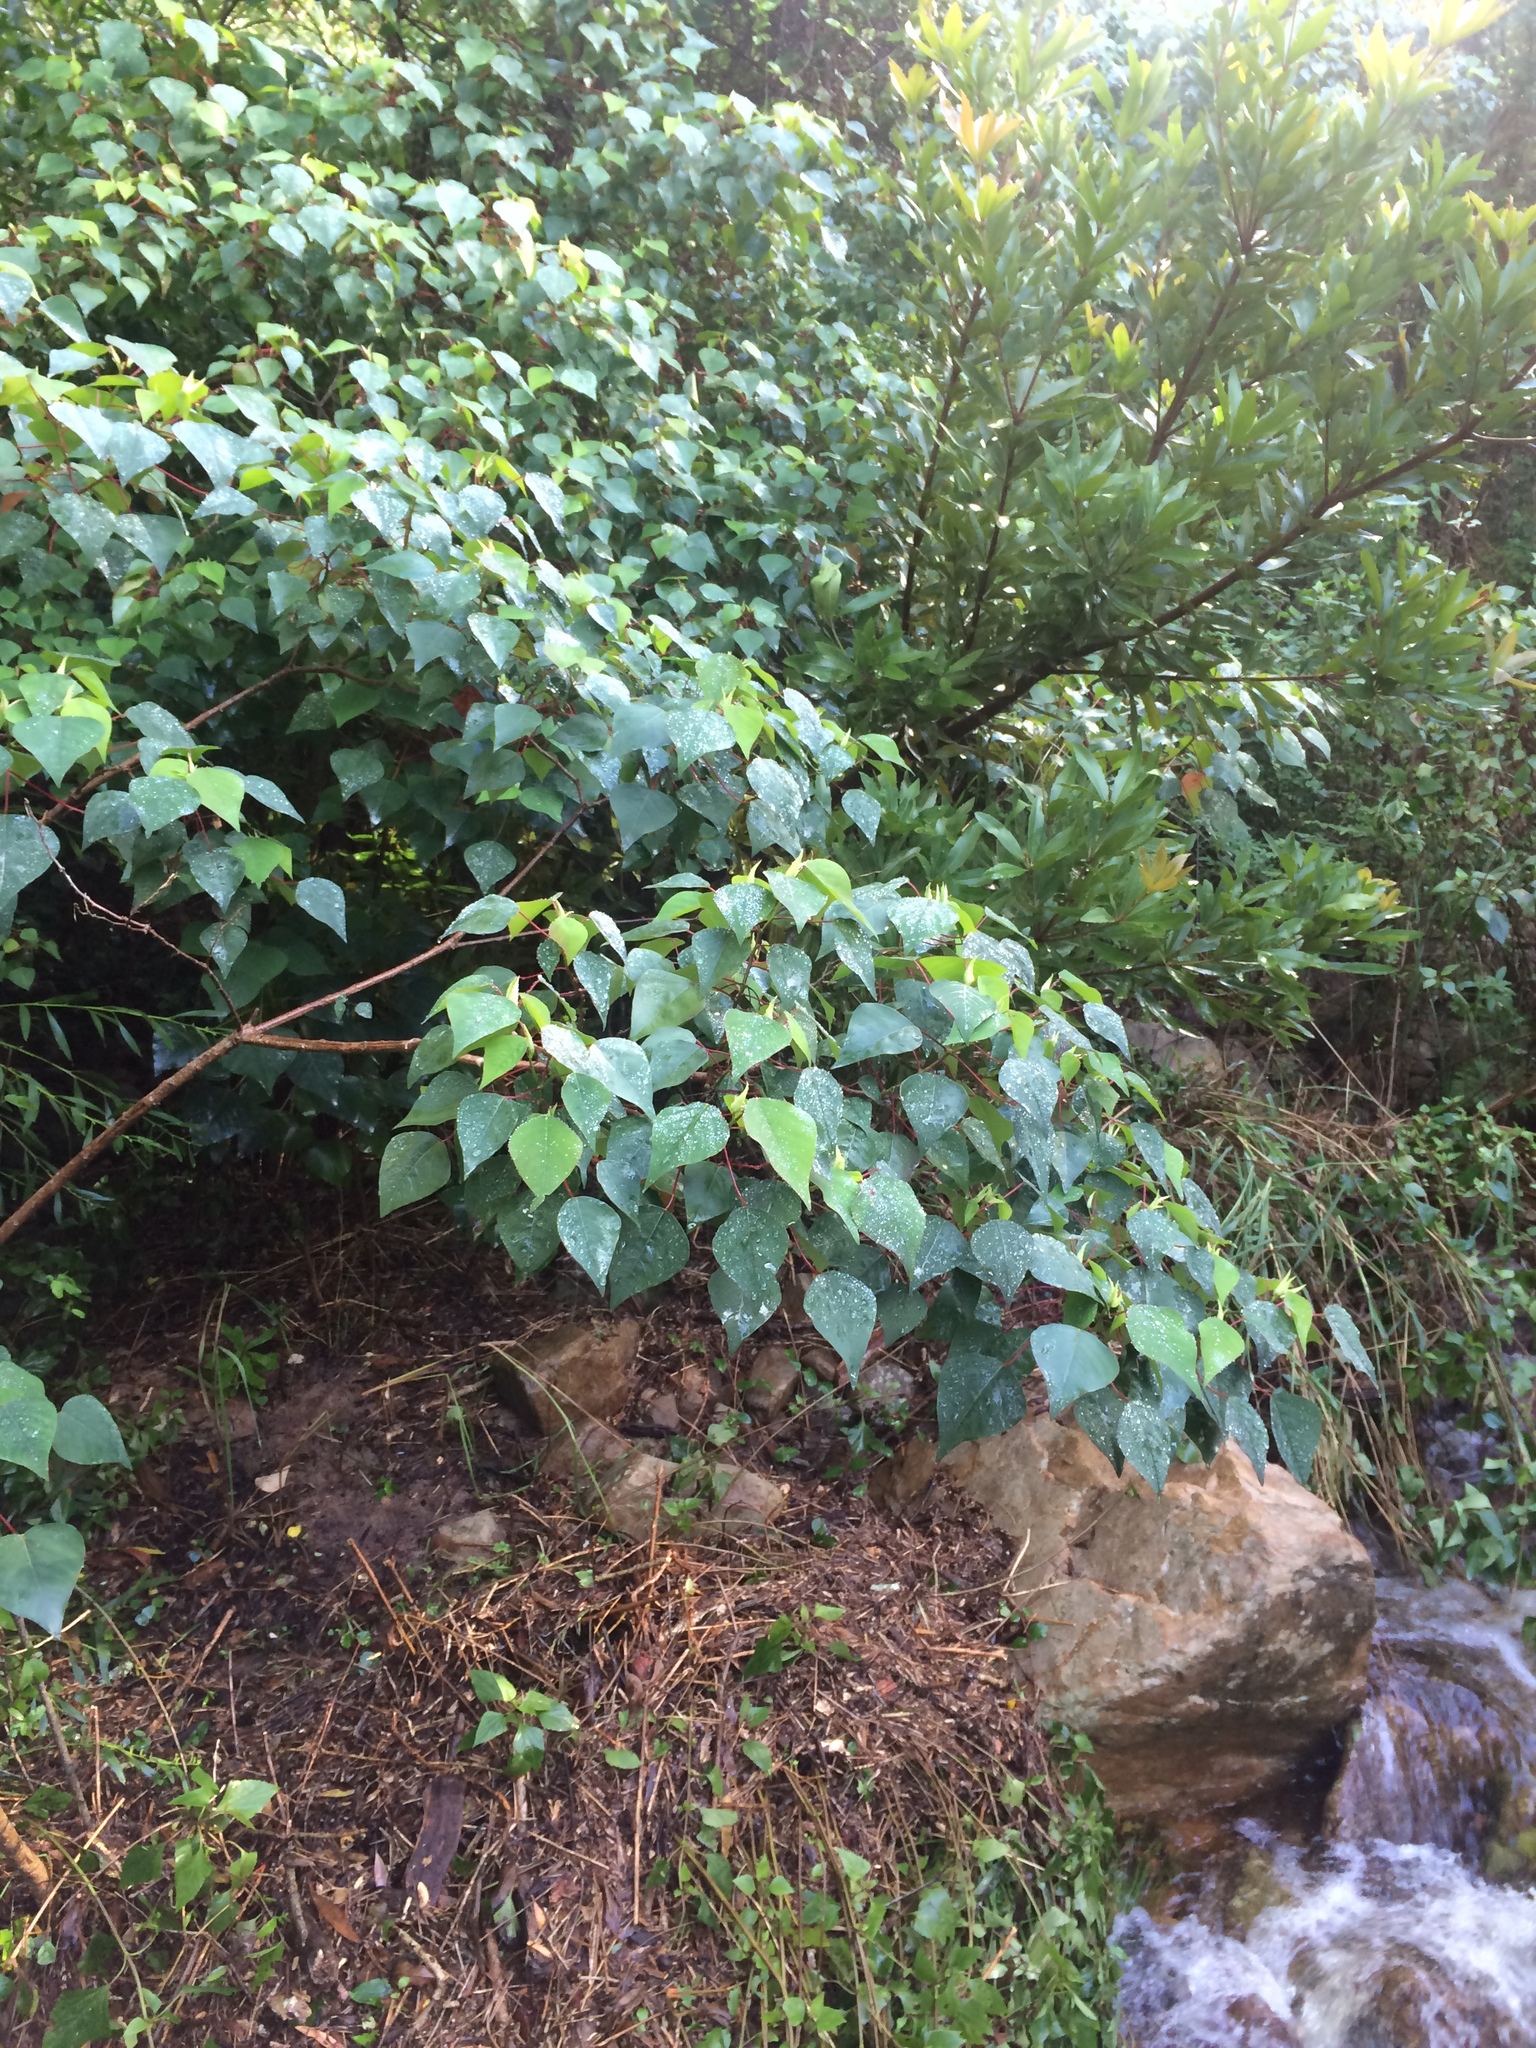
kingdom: Plantae
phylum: Tracheophyta
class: Magnoliopsida
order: Malpighiales
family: Euphorbiaceae
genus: Homalanthus
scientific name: Homalanthus populifolius
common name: Queensland poplar
